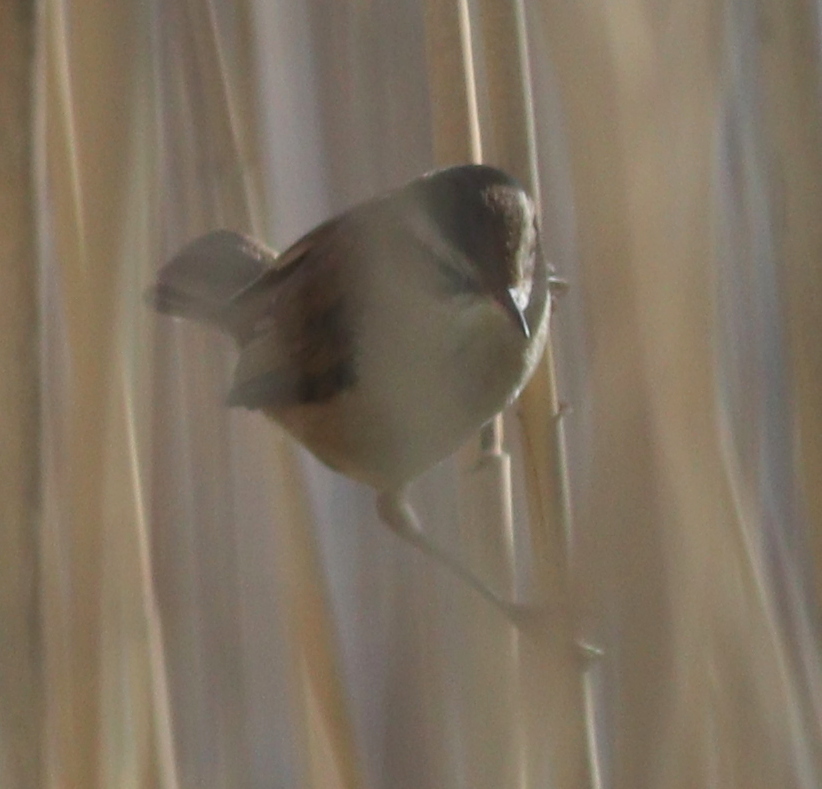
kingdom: Animalia
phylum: Chordata
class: Aves
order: Passeriformes
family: Acrocephalidae
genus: Acrocephalus
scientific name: Acrocephalus melanopogon
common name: Moustached warbler
